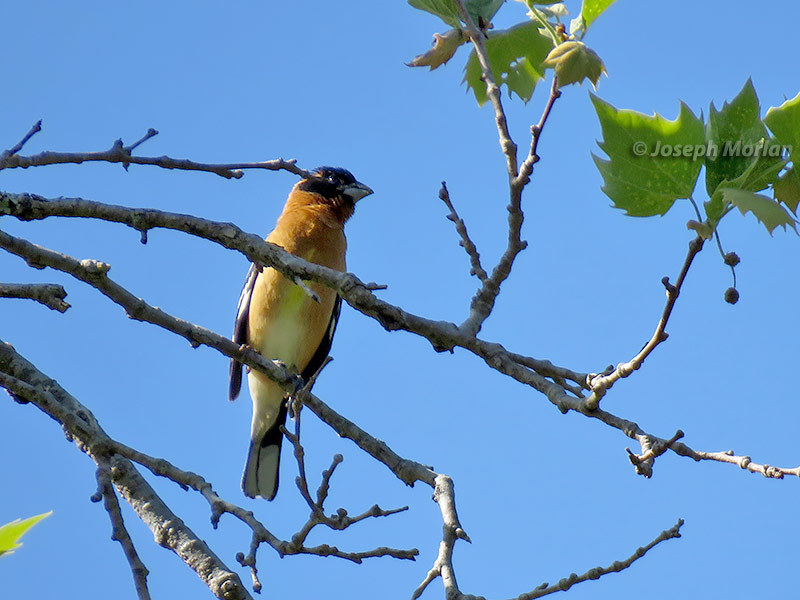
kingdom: Animalia
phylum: Chordata
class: Aves
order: Passeriformes
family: Cardinalidae
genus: Pheucticus
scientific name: Pheucticus melanocephalus
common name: Black-headed grosbeak
